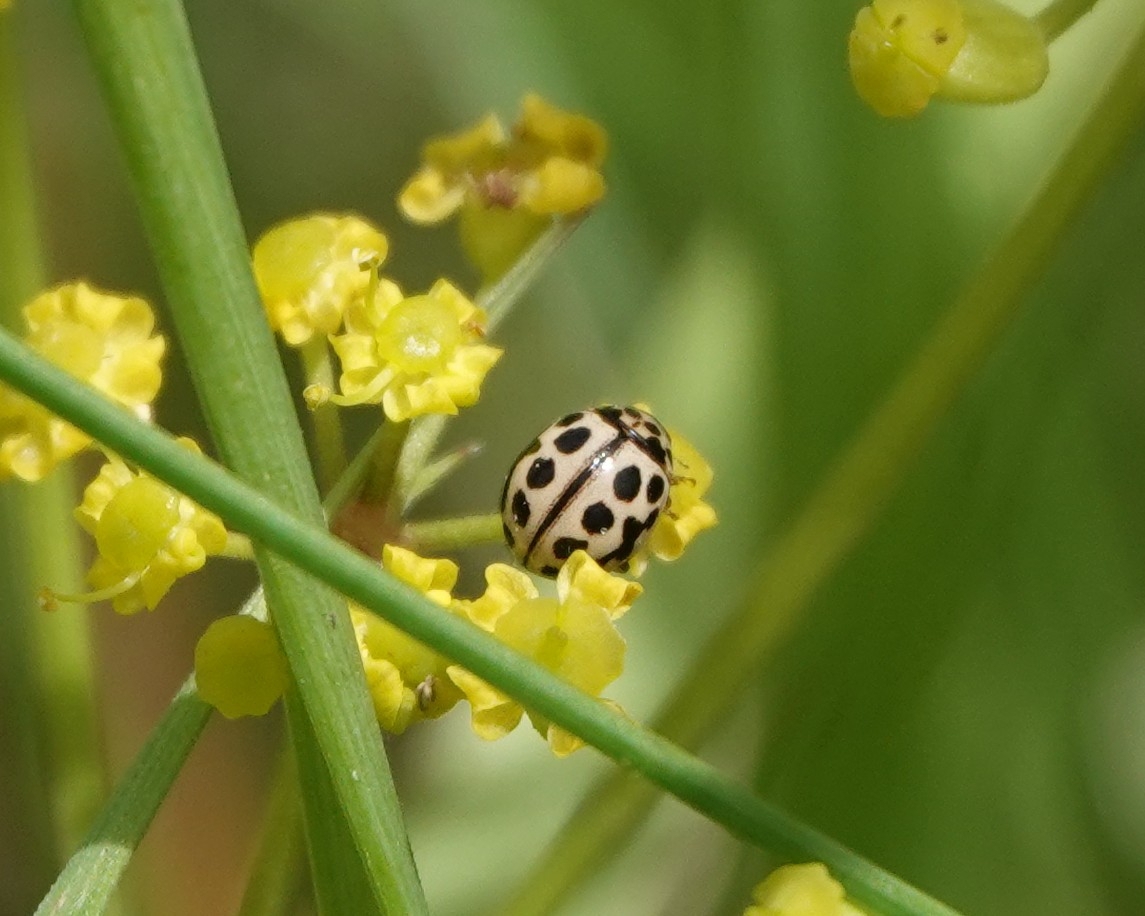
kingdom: Animalia
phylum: Arthropoda
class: Insecta
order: Coleoptera
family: Coccinellidae
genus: Tytthaspis
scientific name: Tytthaspis sedecimpunctata
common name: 16-spot ladybird
